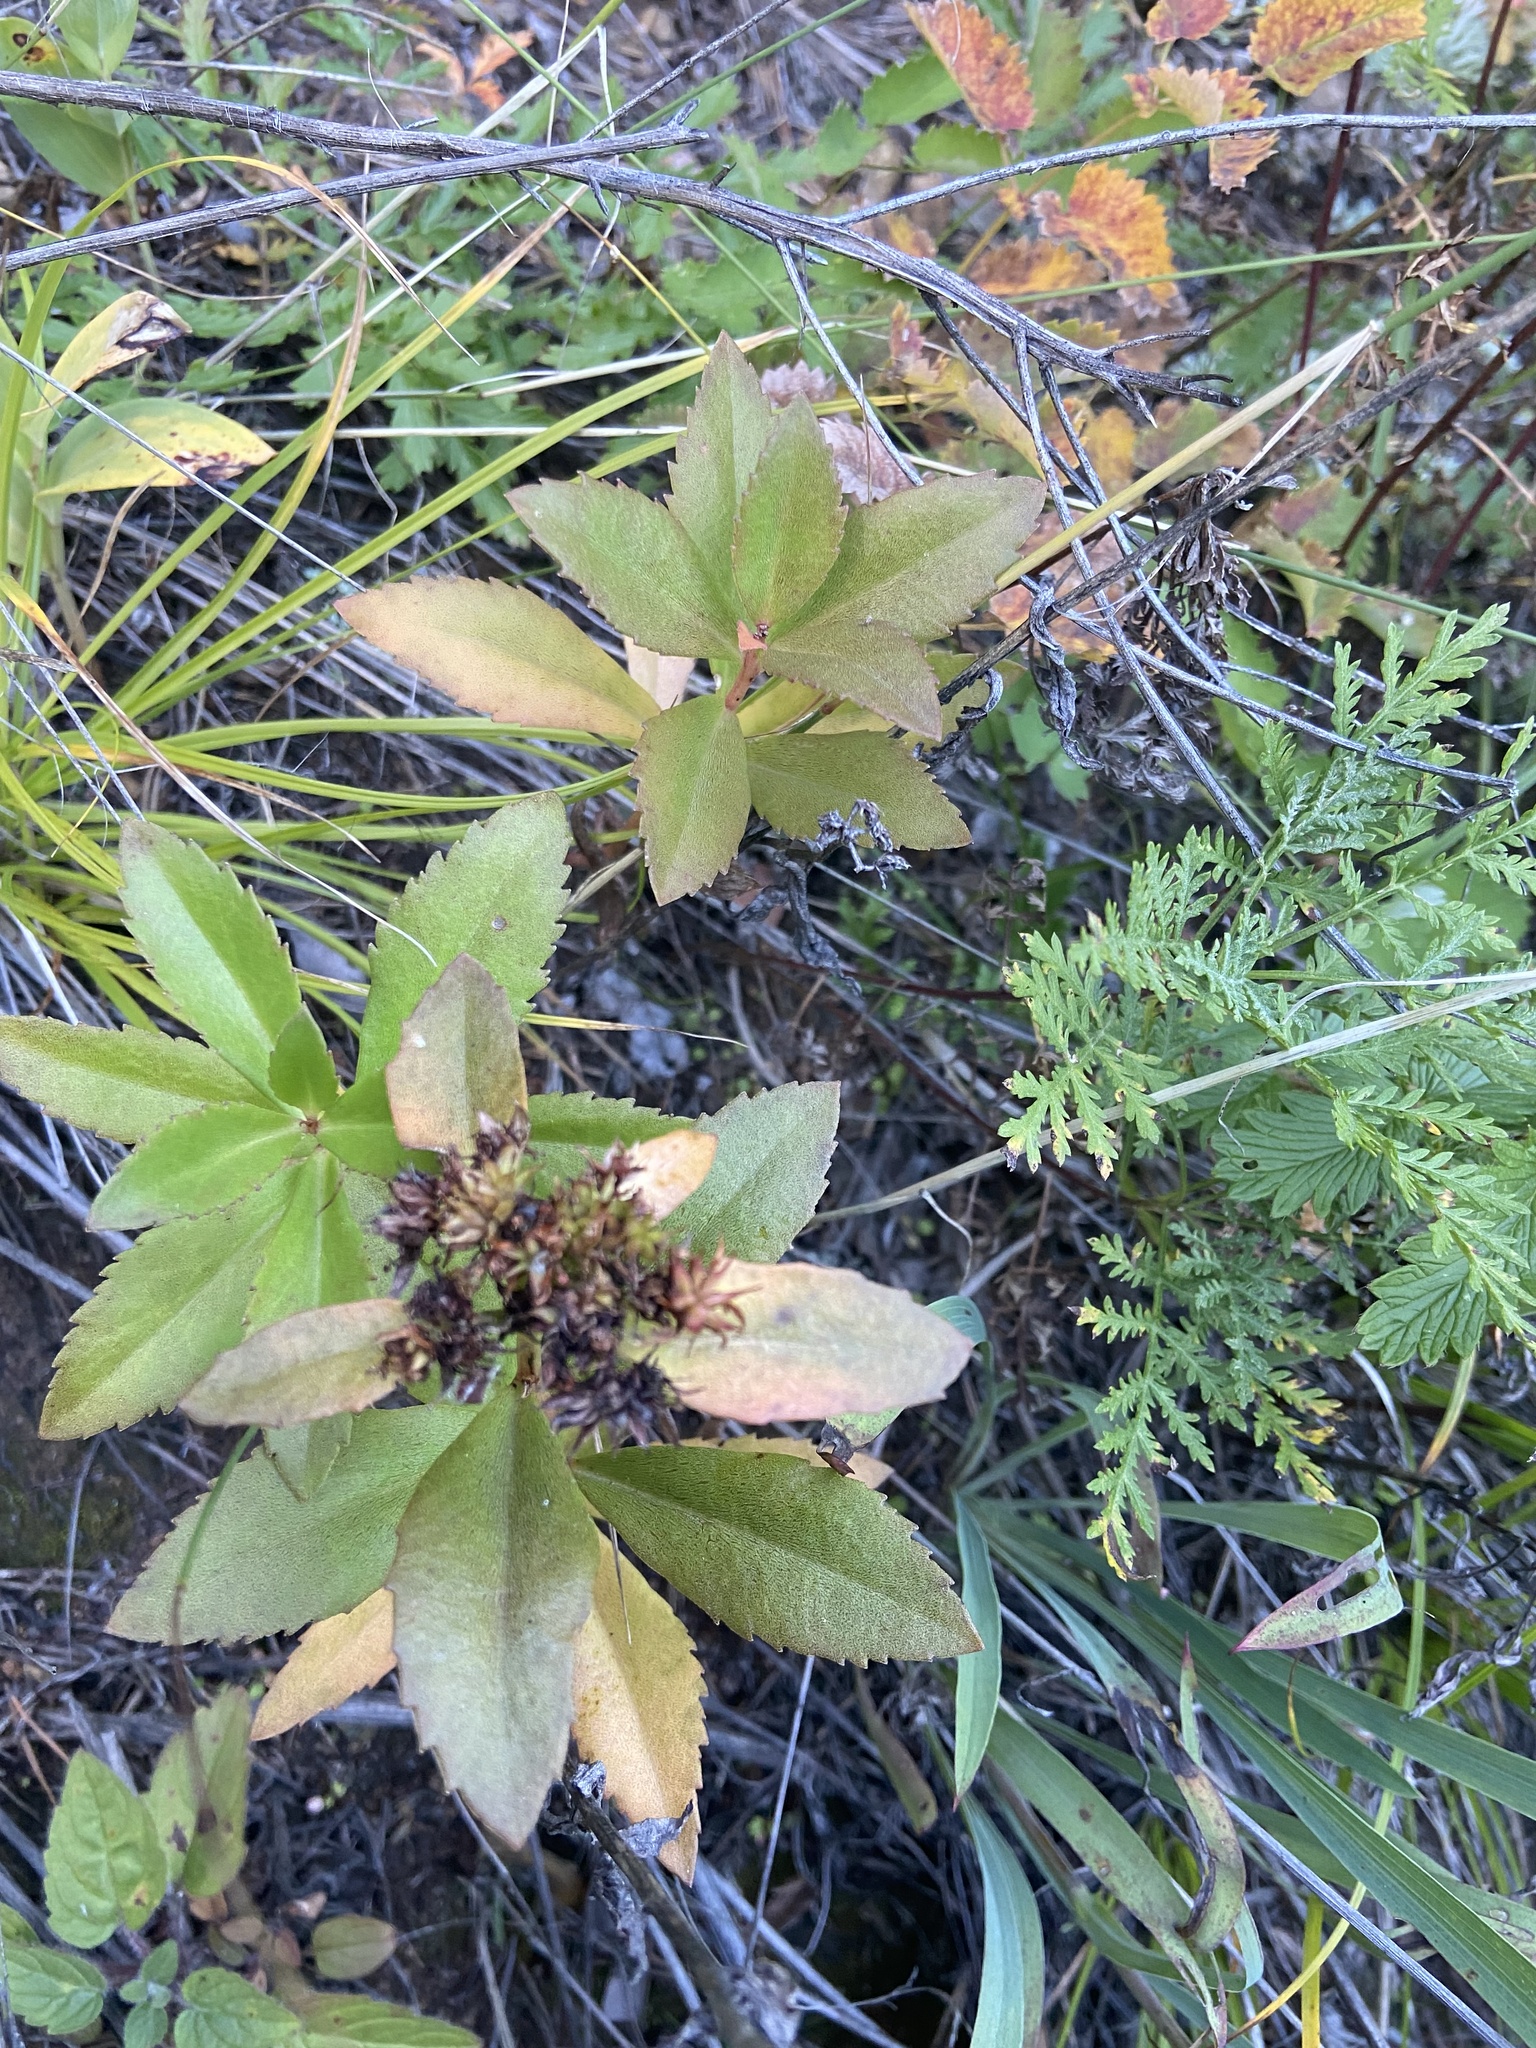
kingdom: Plantae
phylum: Tracheophyta
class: Magnoliopsida
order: Saxifragales
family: Crassulaceae
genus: Phedimus
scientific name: Phedimus aizoon
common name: Orpin aizoon
